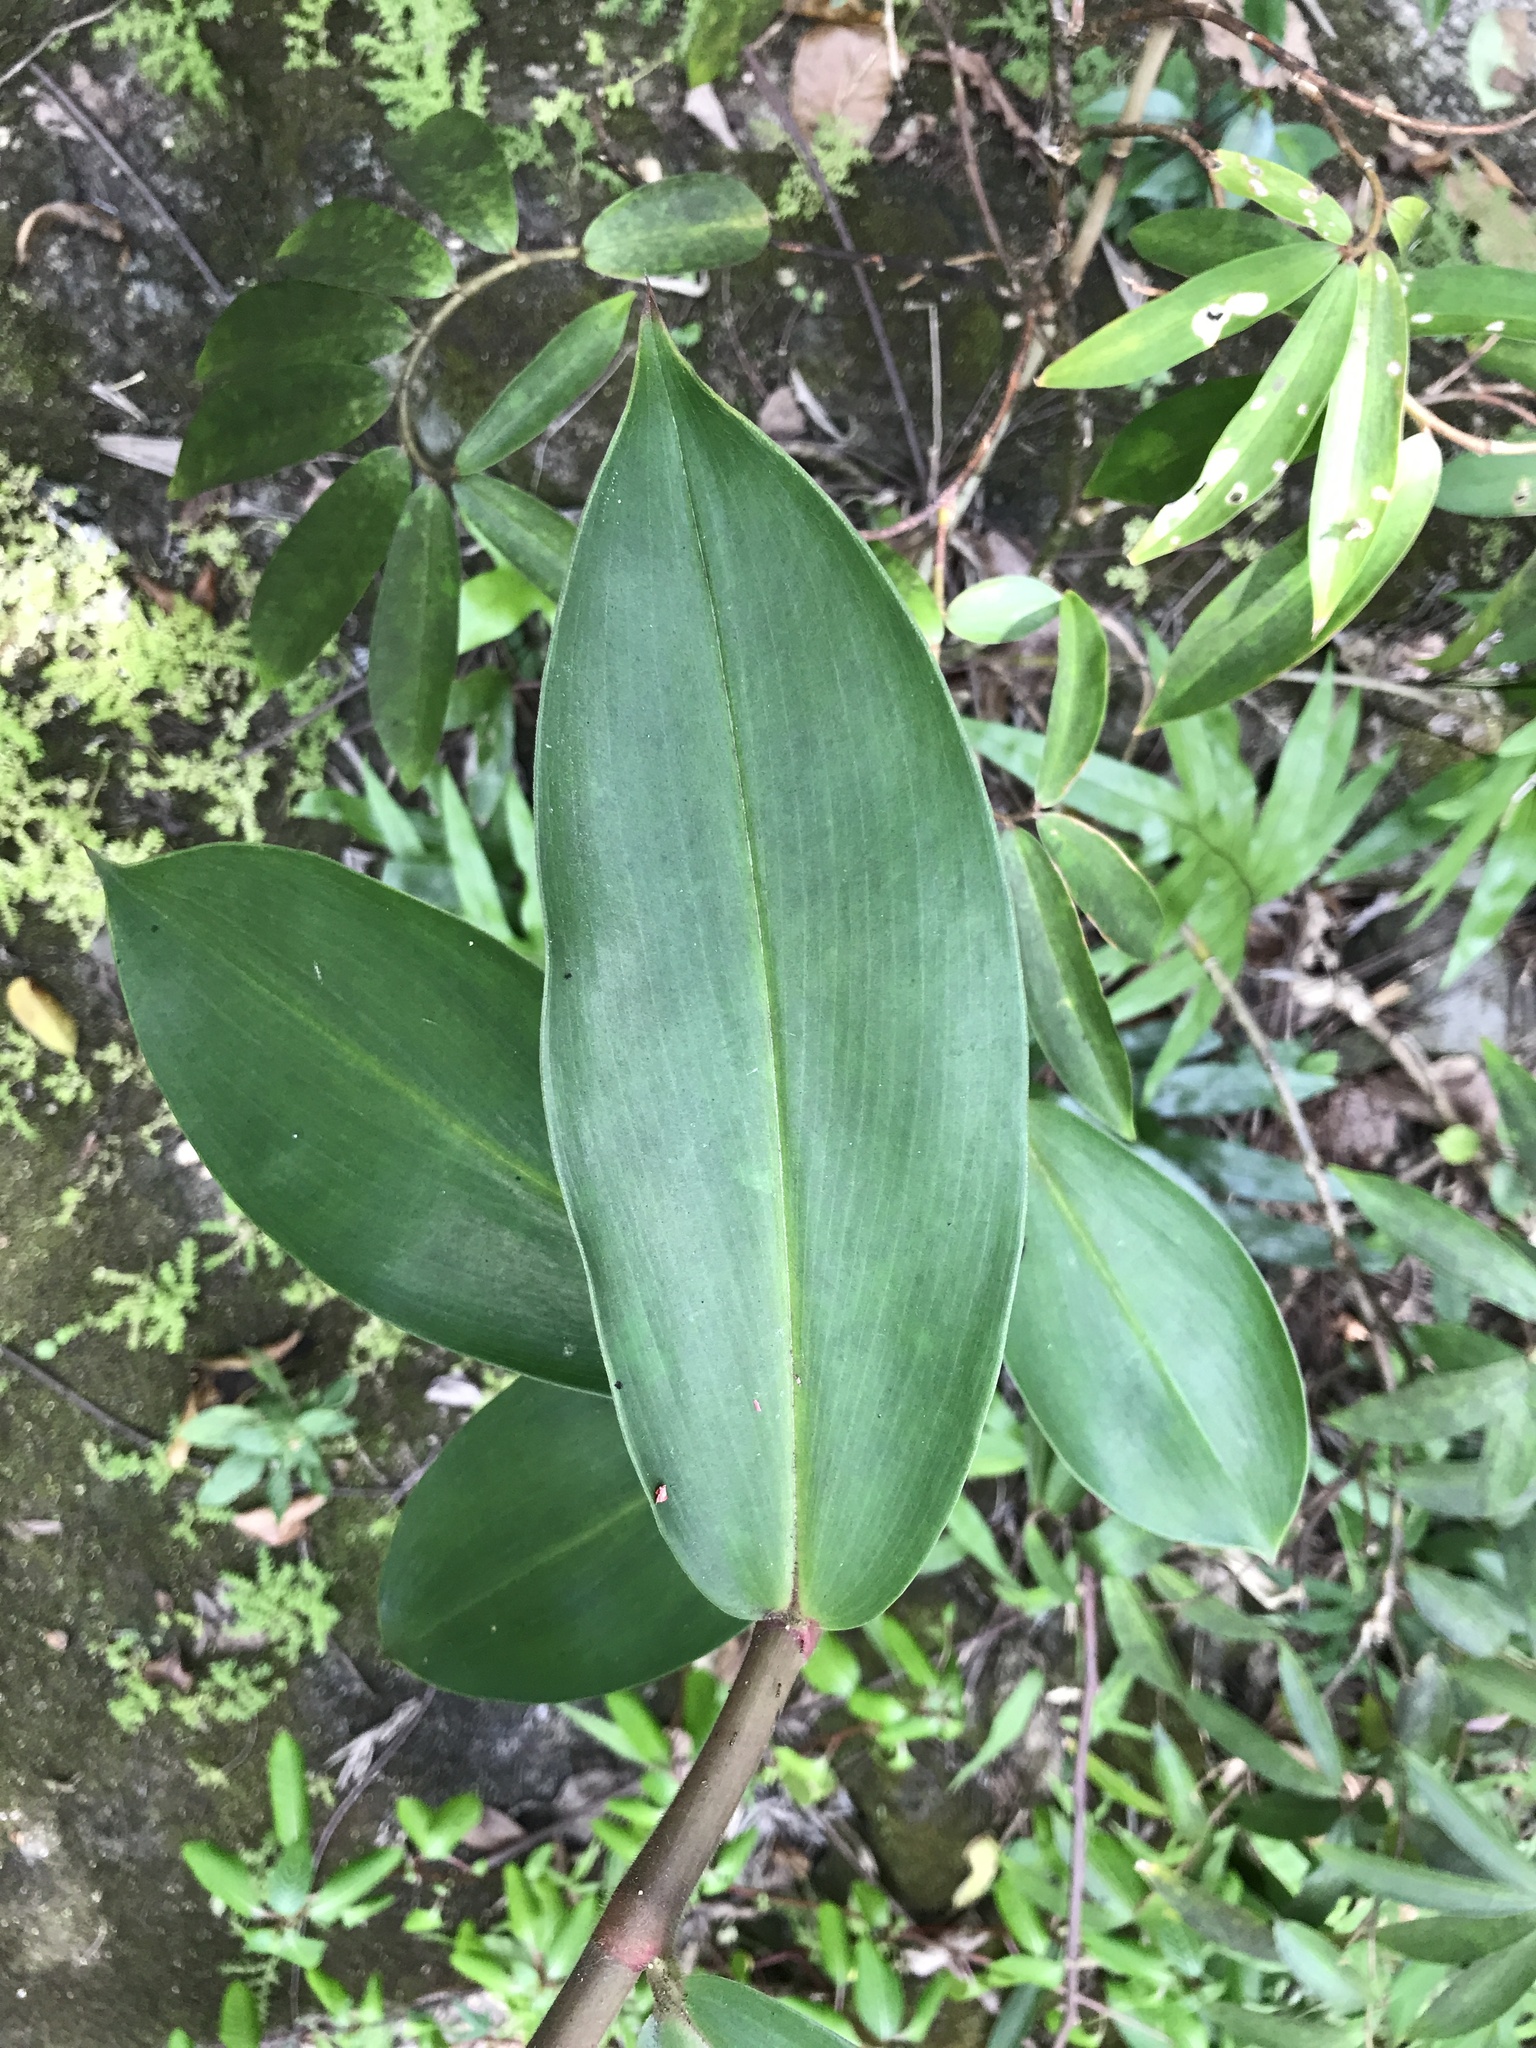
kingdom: Plantae
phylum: Tracheophyta
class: Liliopsida
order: Zingiberales
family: Costaceae
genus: Hellenia
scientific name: Hellenia speciosa
